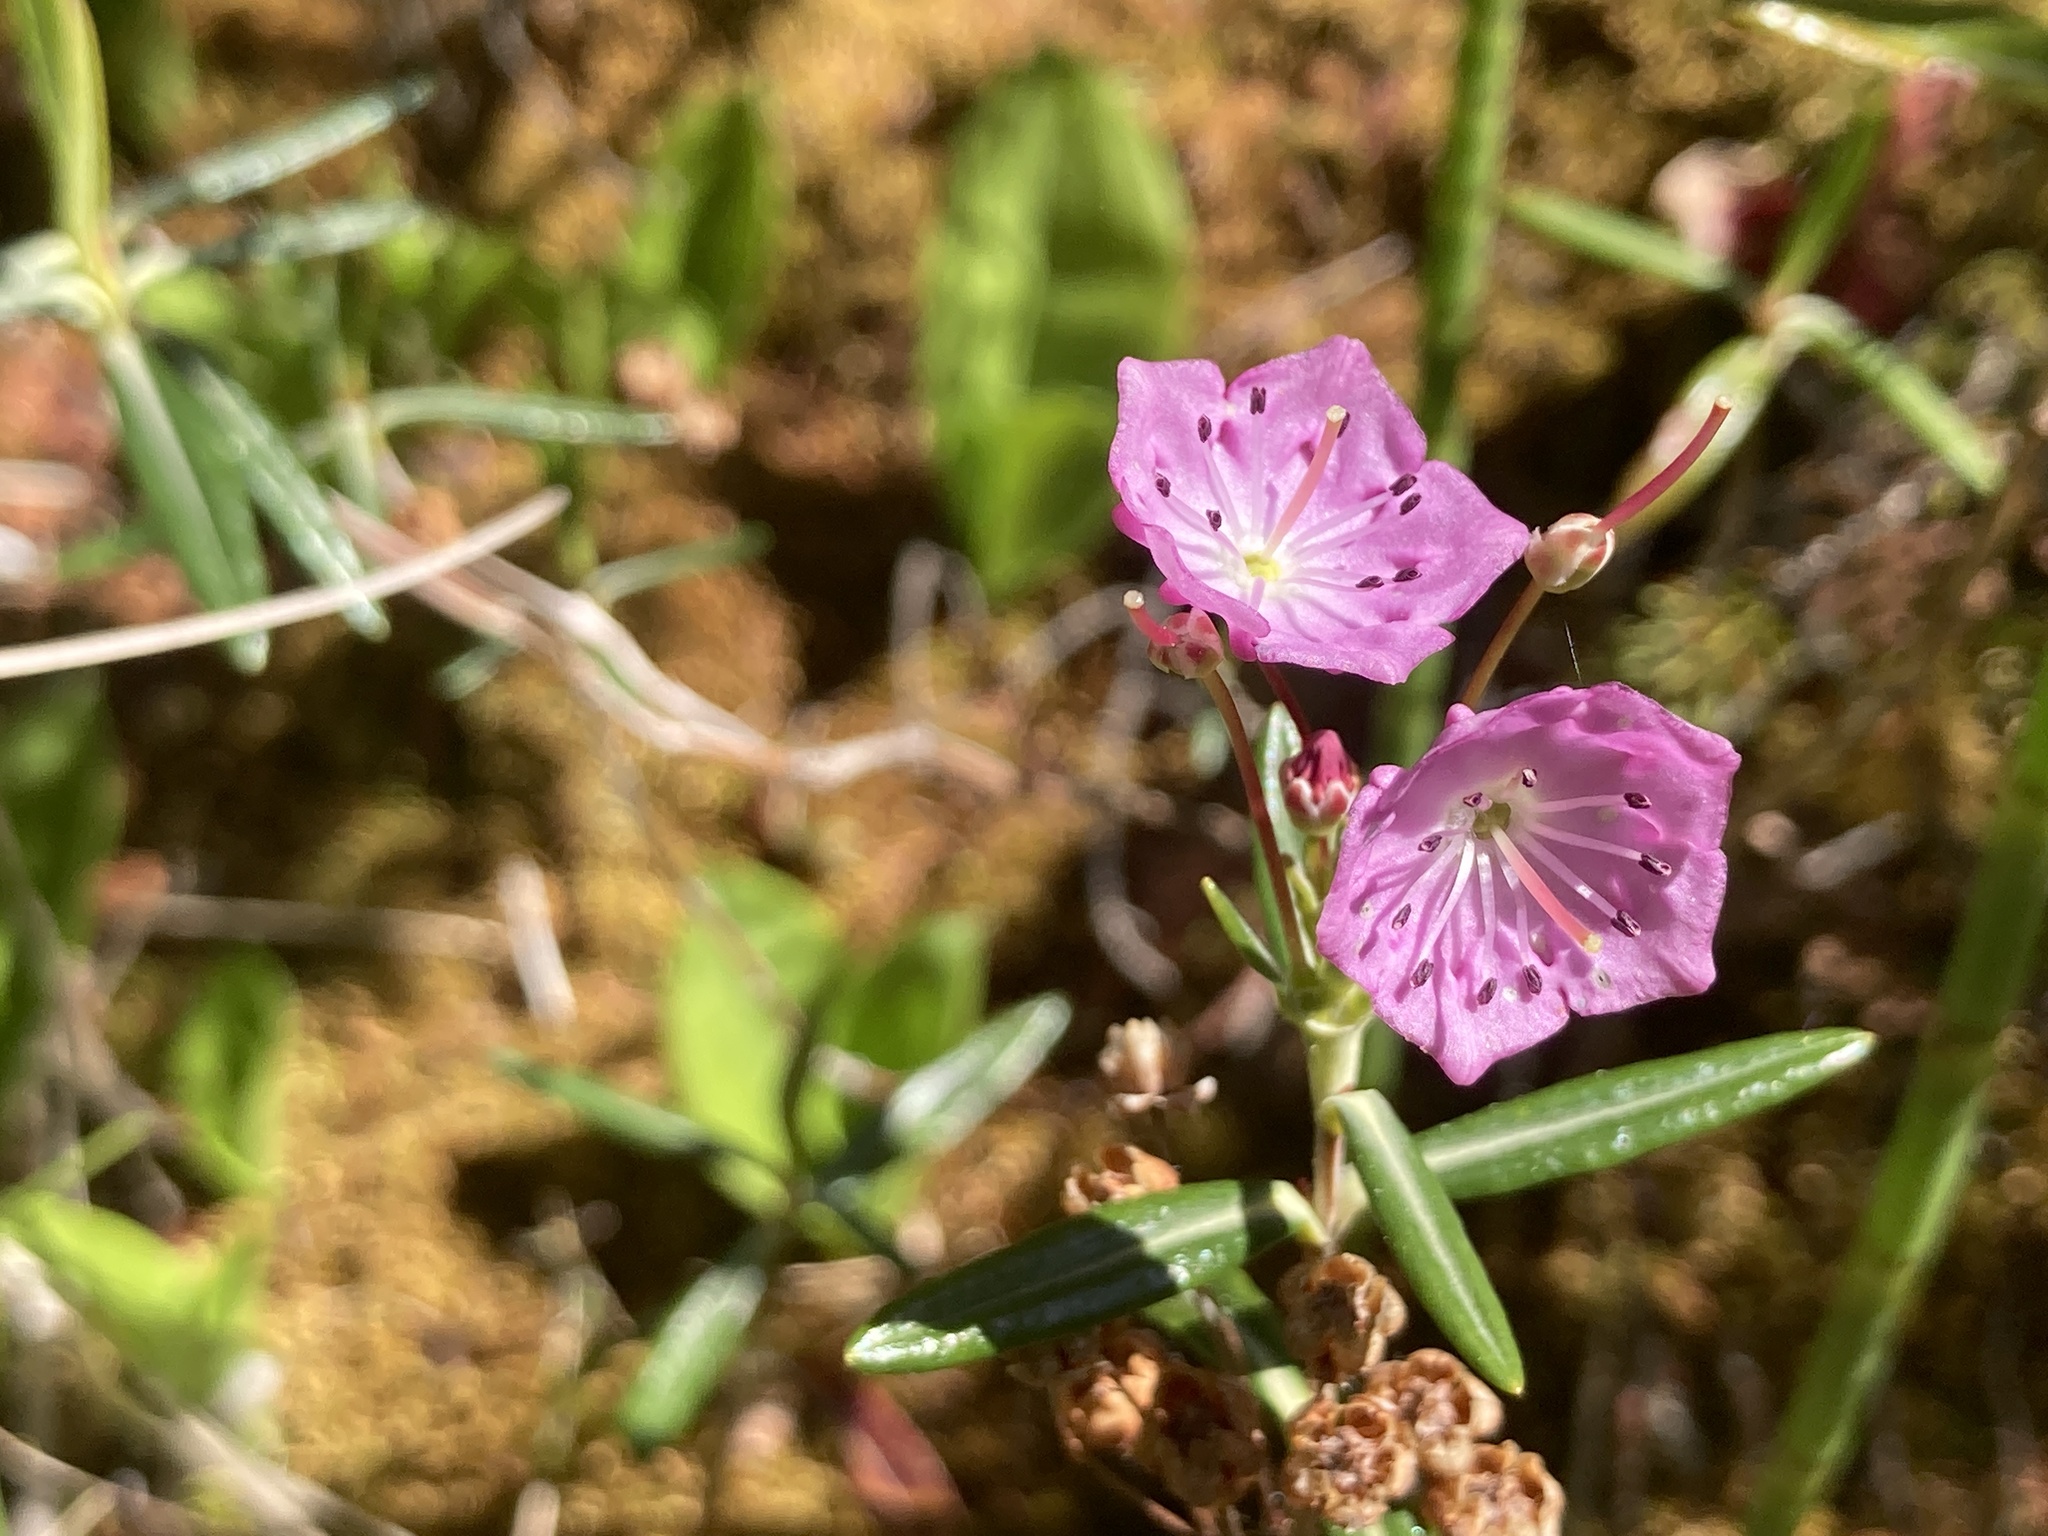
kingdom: Plantae
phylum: Tracheophyta
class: Magnoliopsida
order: Ericales
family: Ericaceae
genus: Kalmia
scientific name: Kalmia polifolia
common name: Bog-laurel
